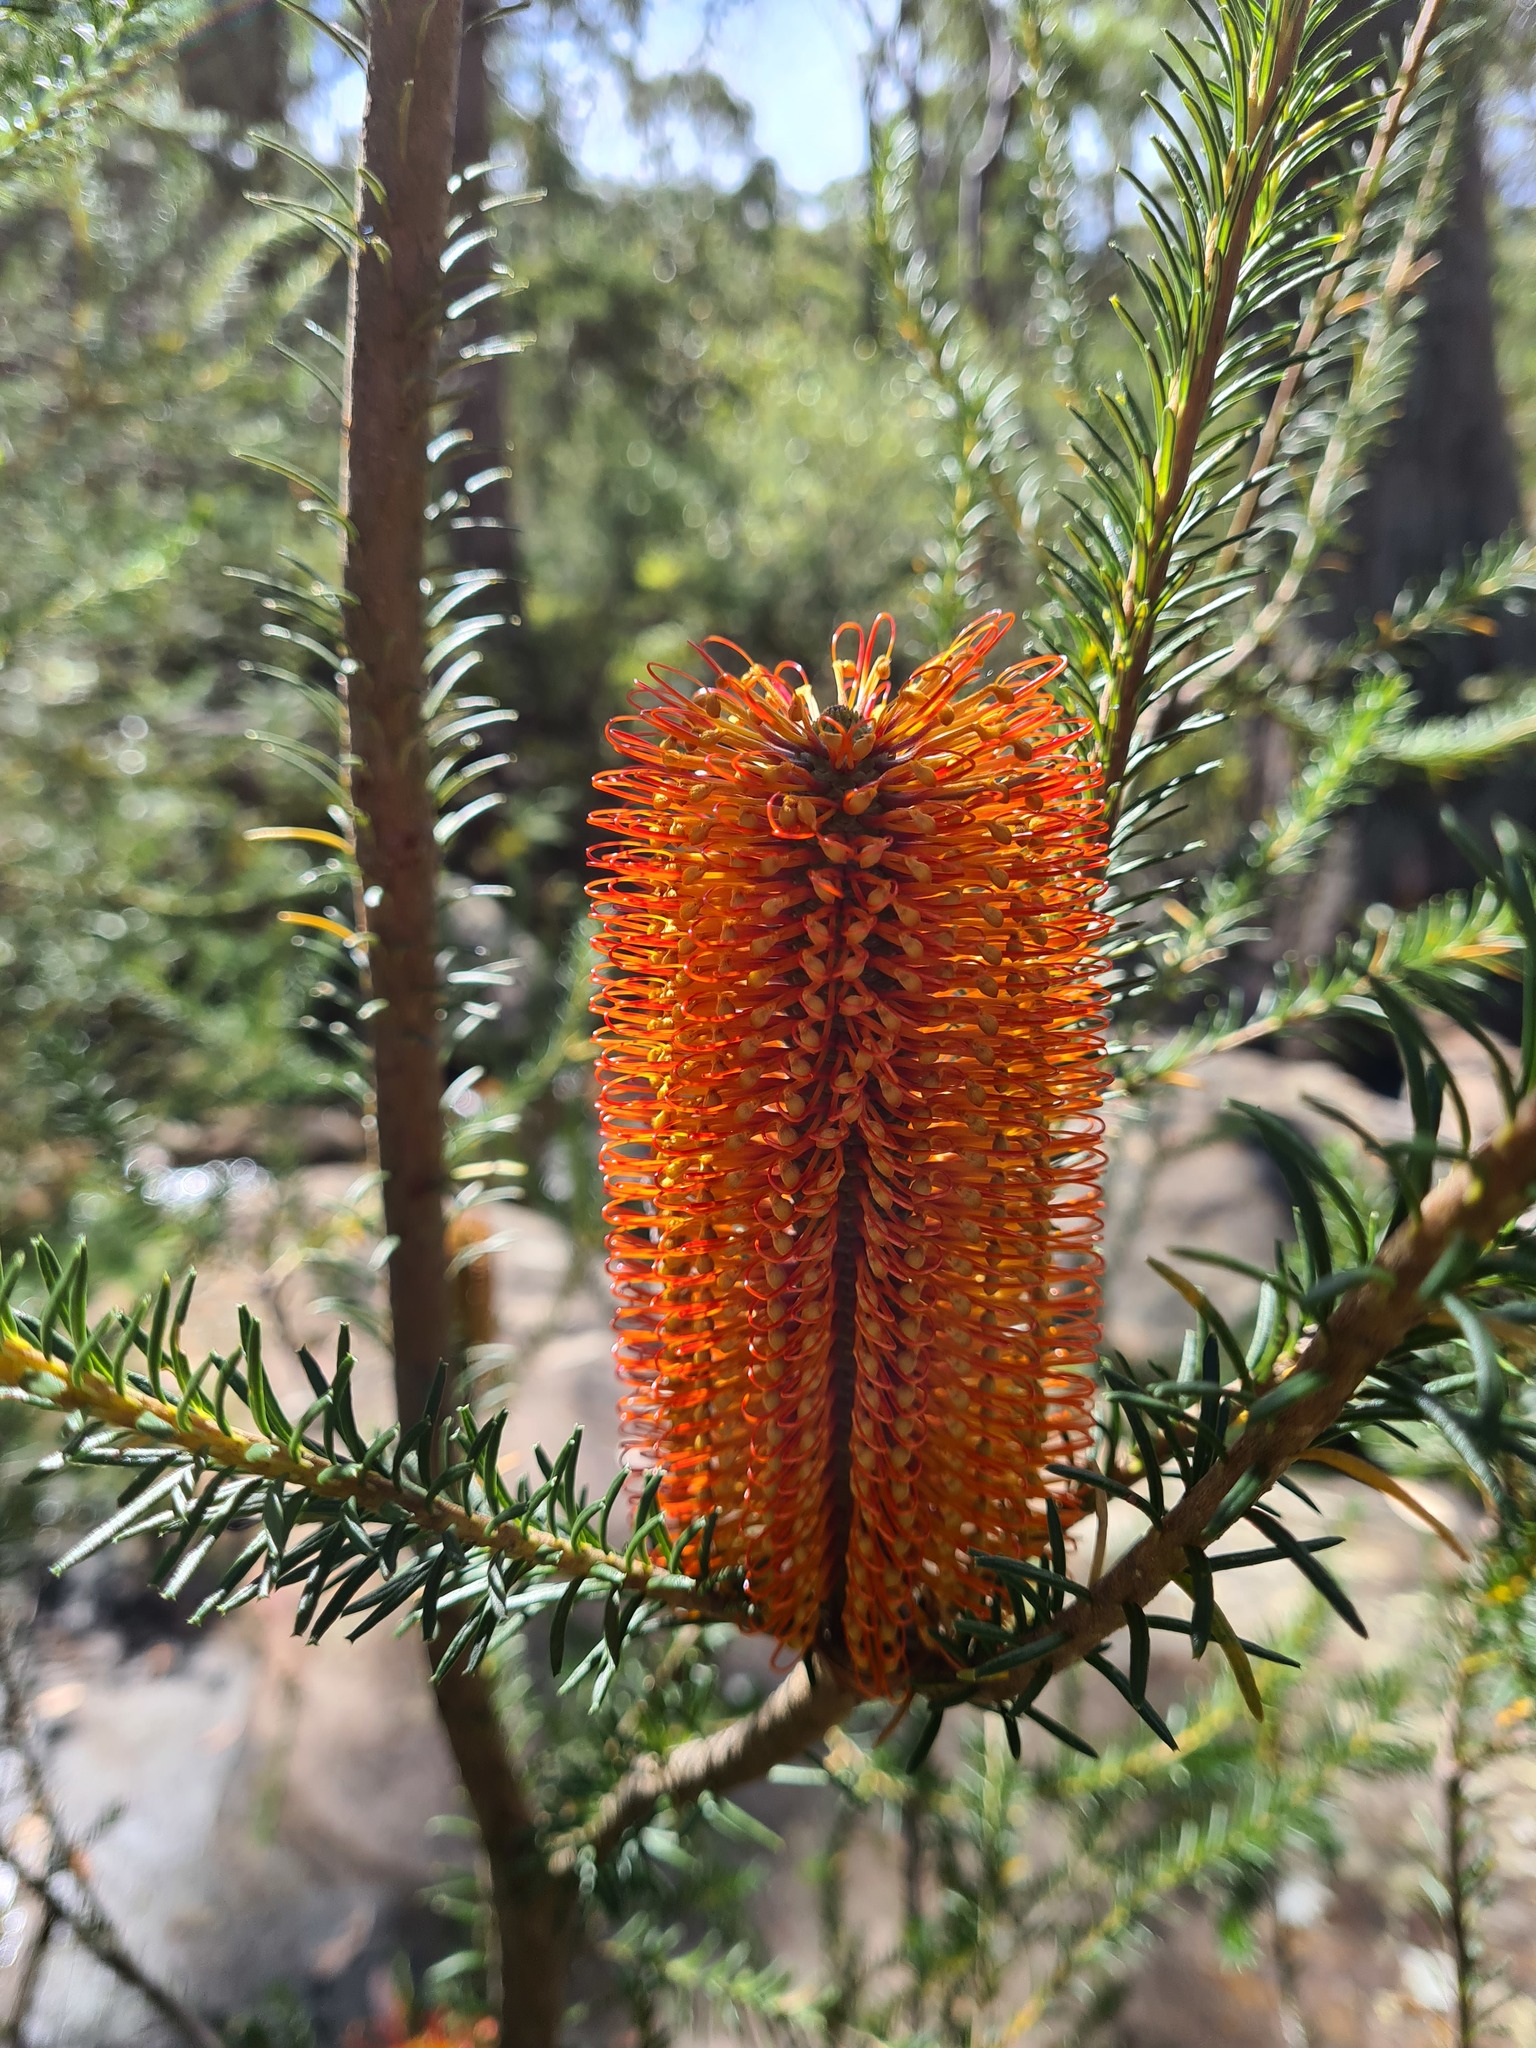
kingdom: Plantae
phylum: Tracheophyta
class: Magnoliopsida
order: Proteales
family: Proteaceae
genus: Banksia
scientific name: Banksia ericifolia
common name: Heath-leaf banksia
